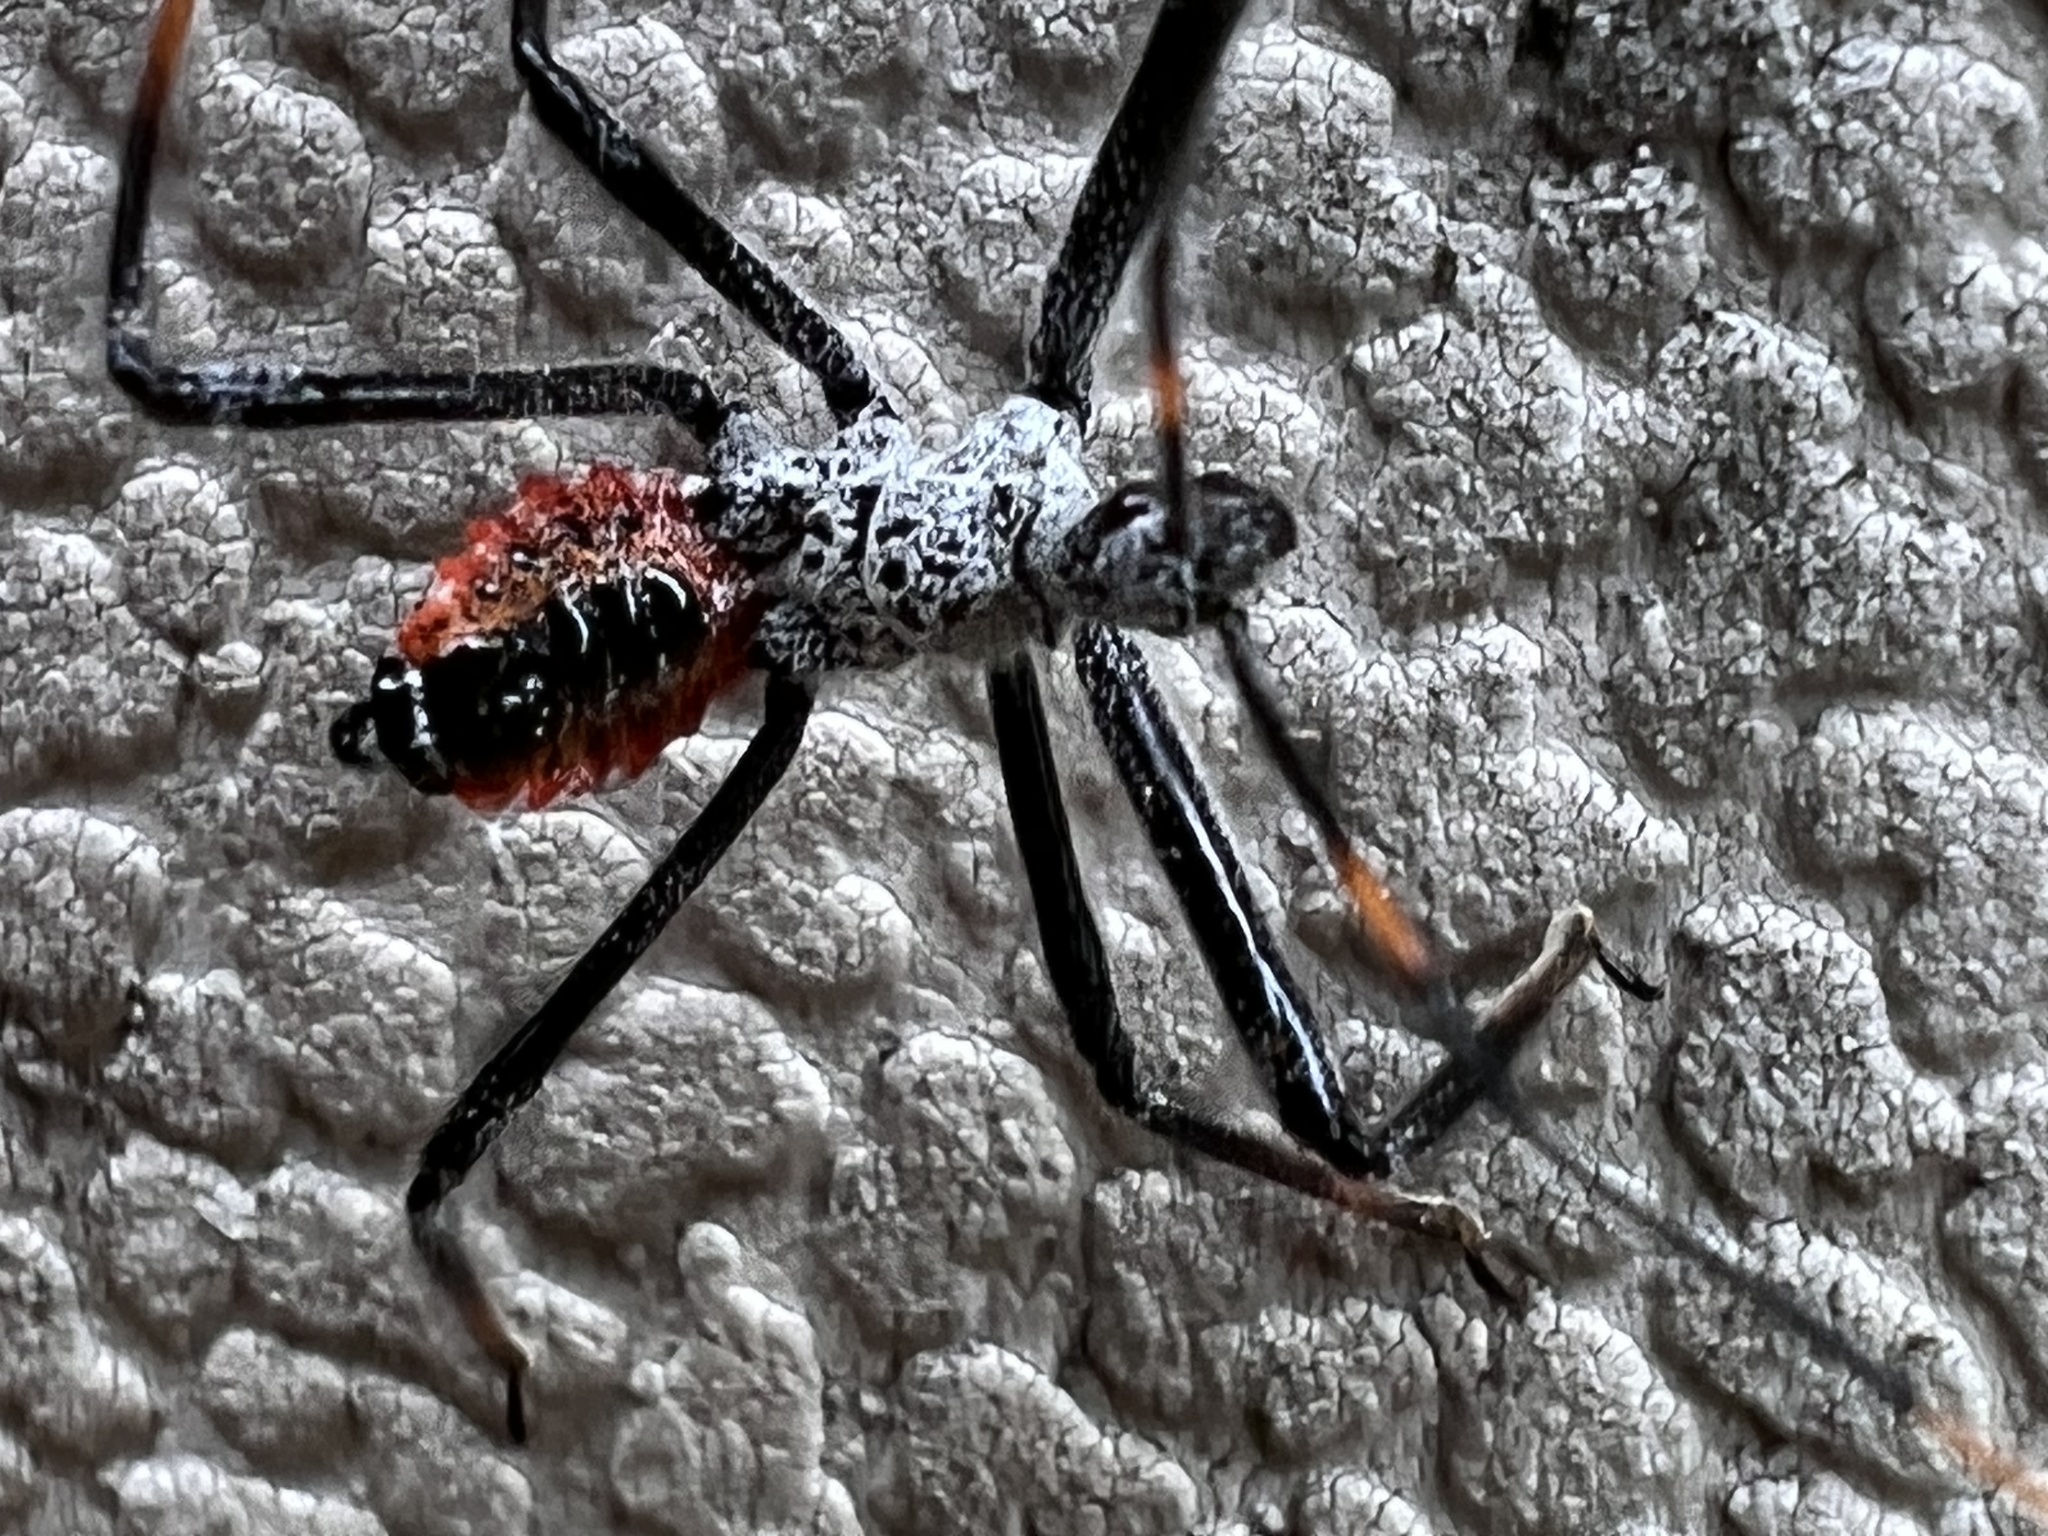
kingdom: Animalia
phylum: Arthropoda
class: Insecta
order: Hemiptera
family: Reduviidae
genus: Arilus
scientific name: Arilus cristatus
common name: North american wheel bug
